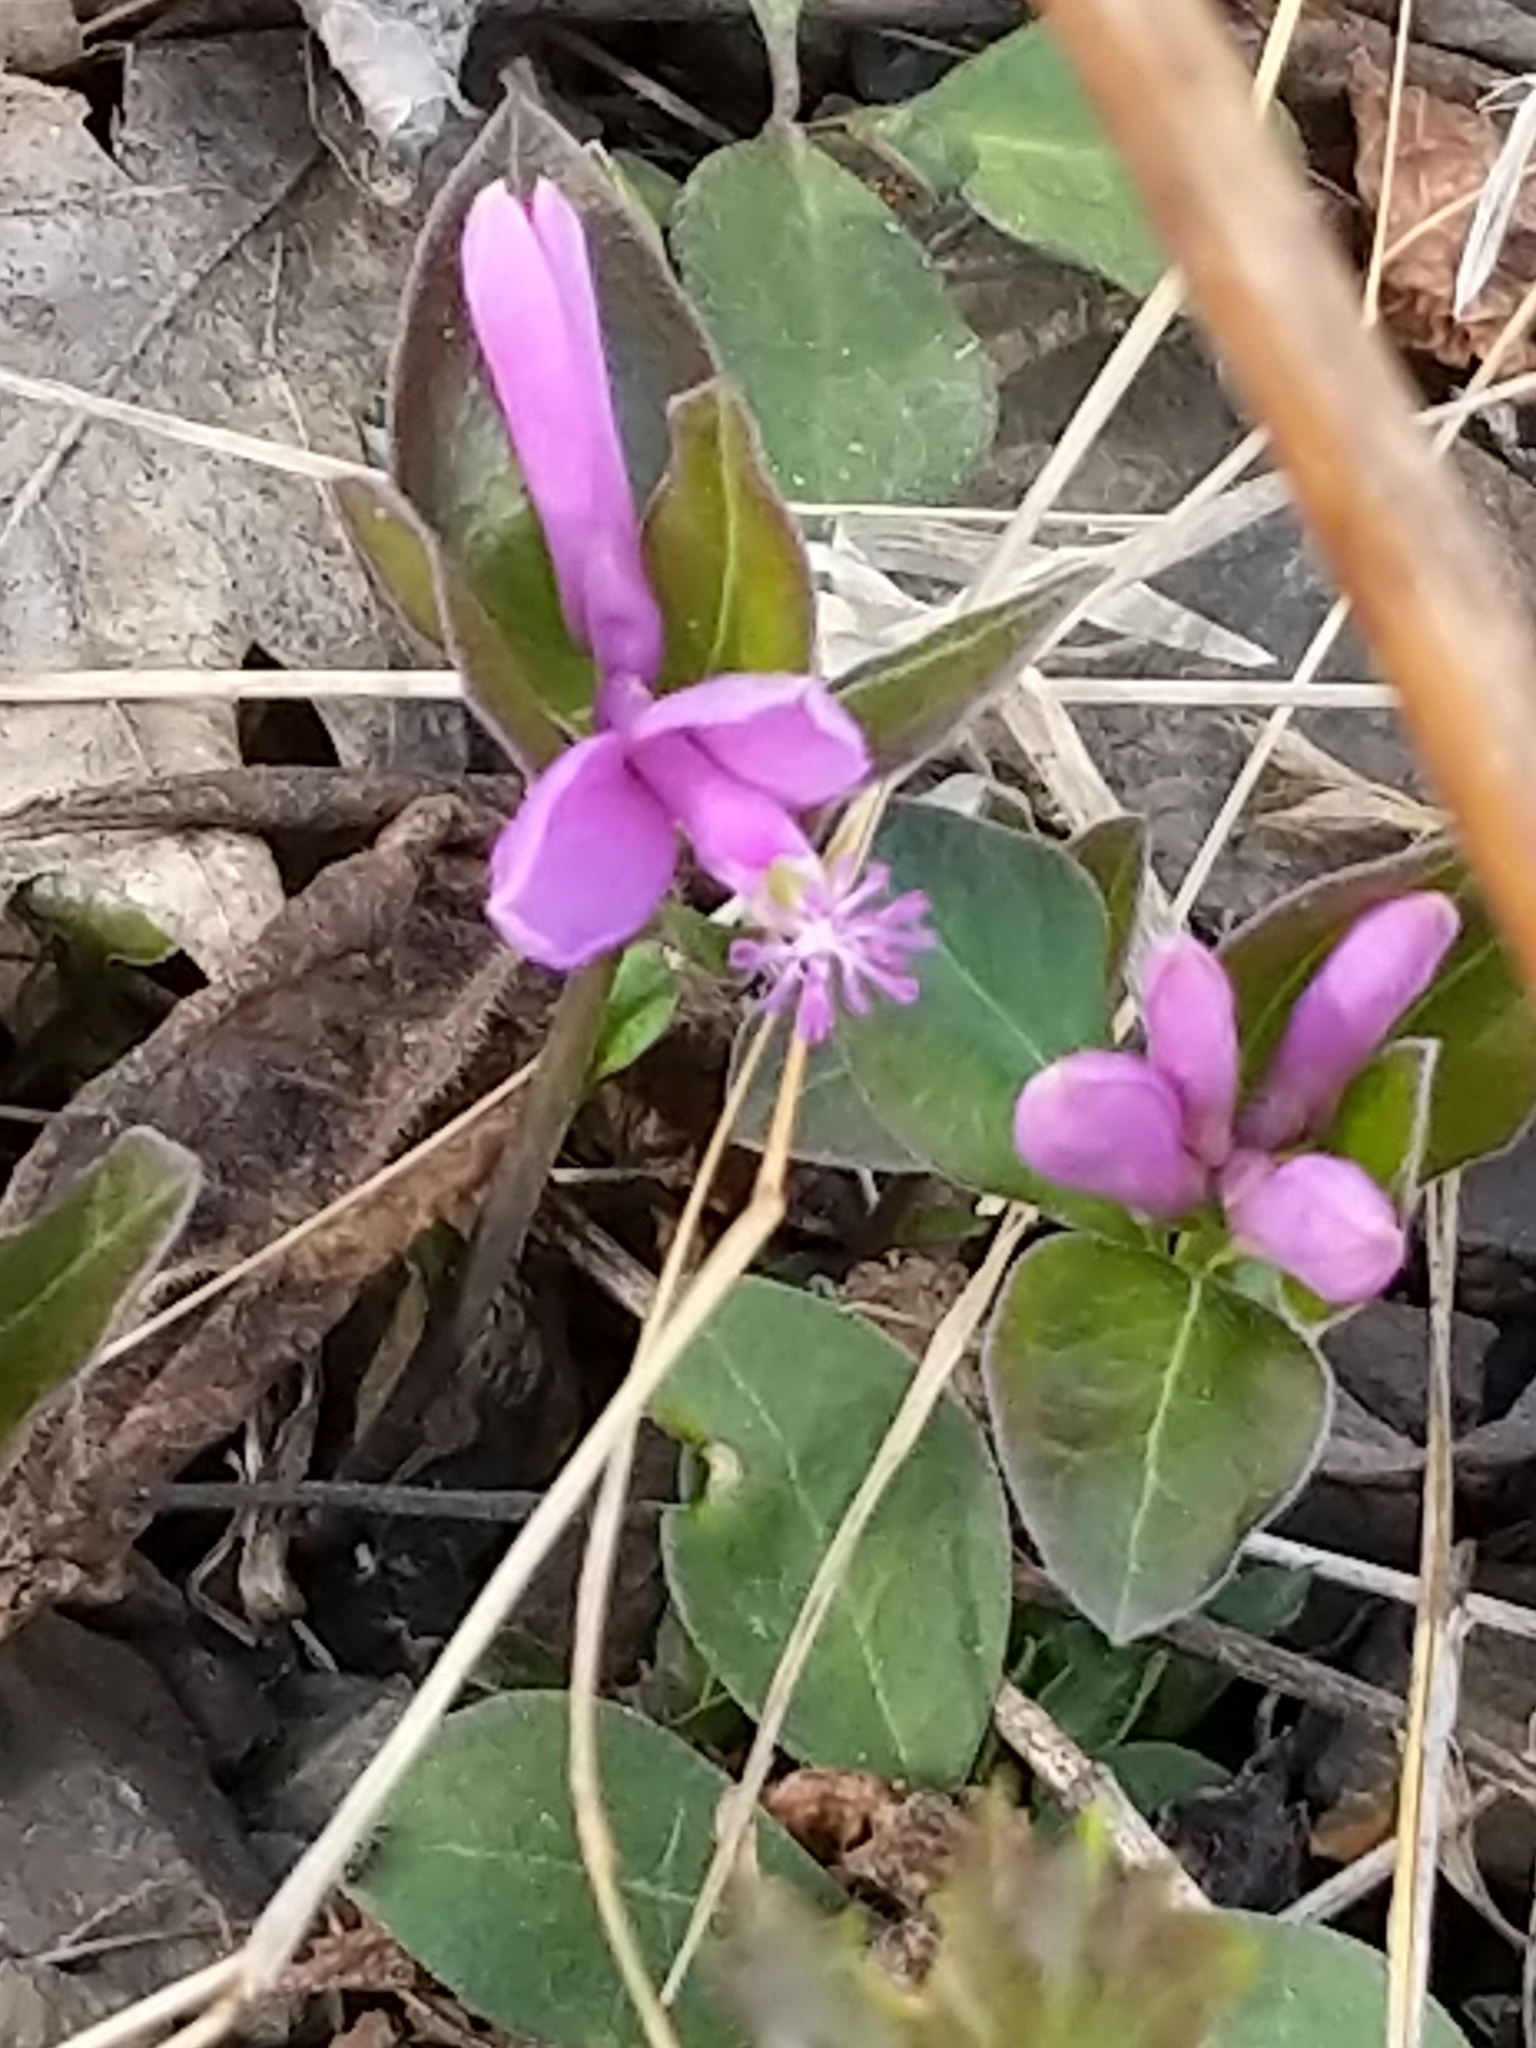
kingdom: Plantae
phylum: Tracheophyta
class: Magnoliopsida
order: Fabales
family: Polygalaceae
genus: Polygaloides
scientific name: Polygaloides paucifolia
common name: Bird-on-the-wing
